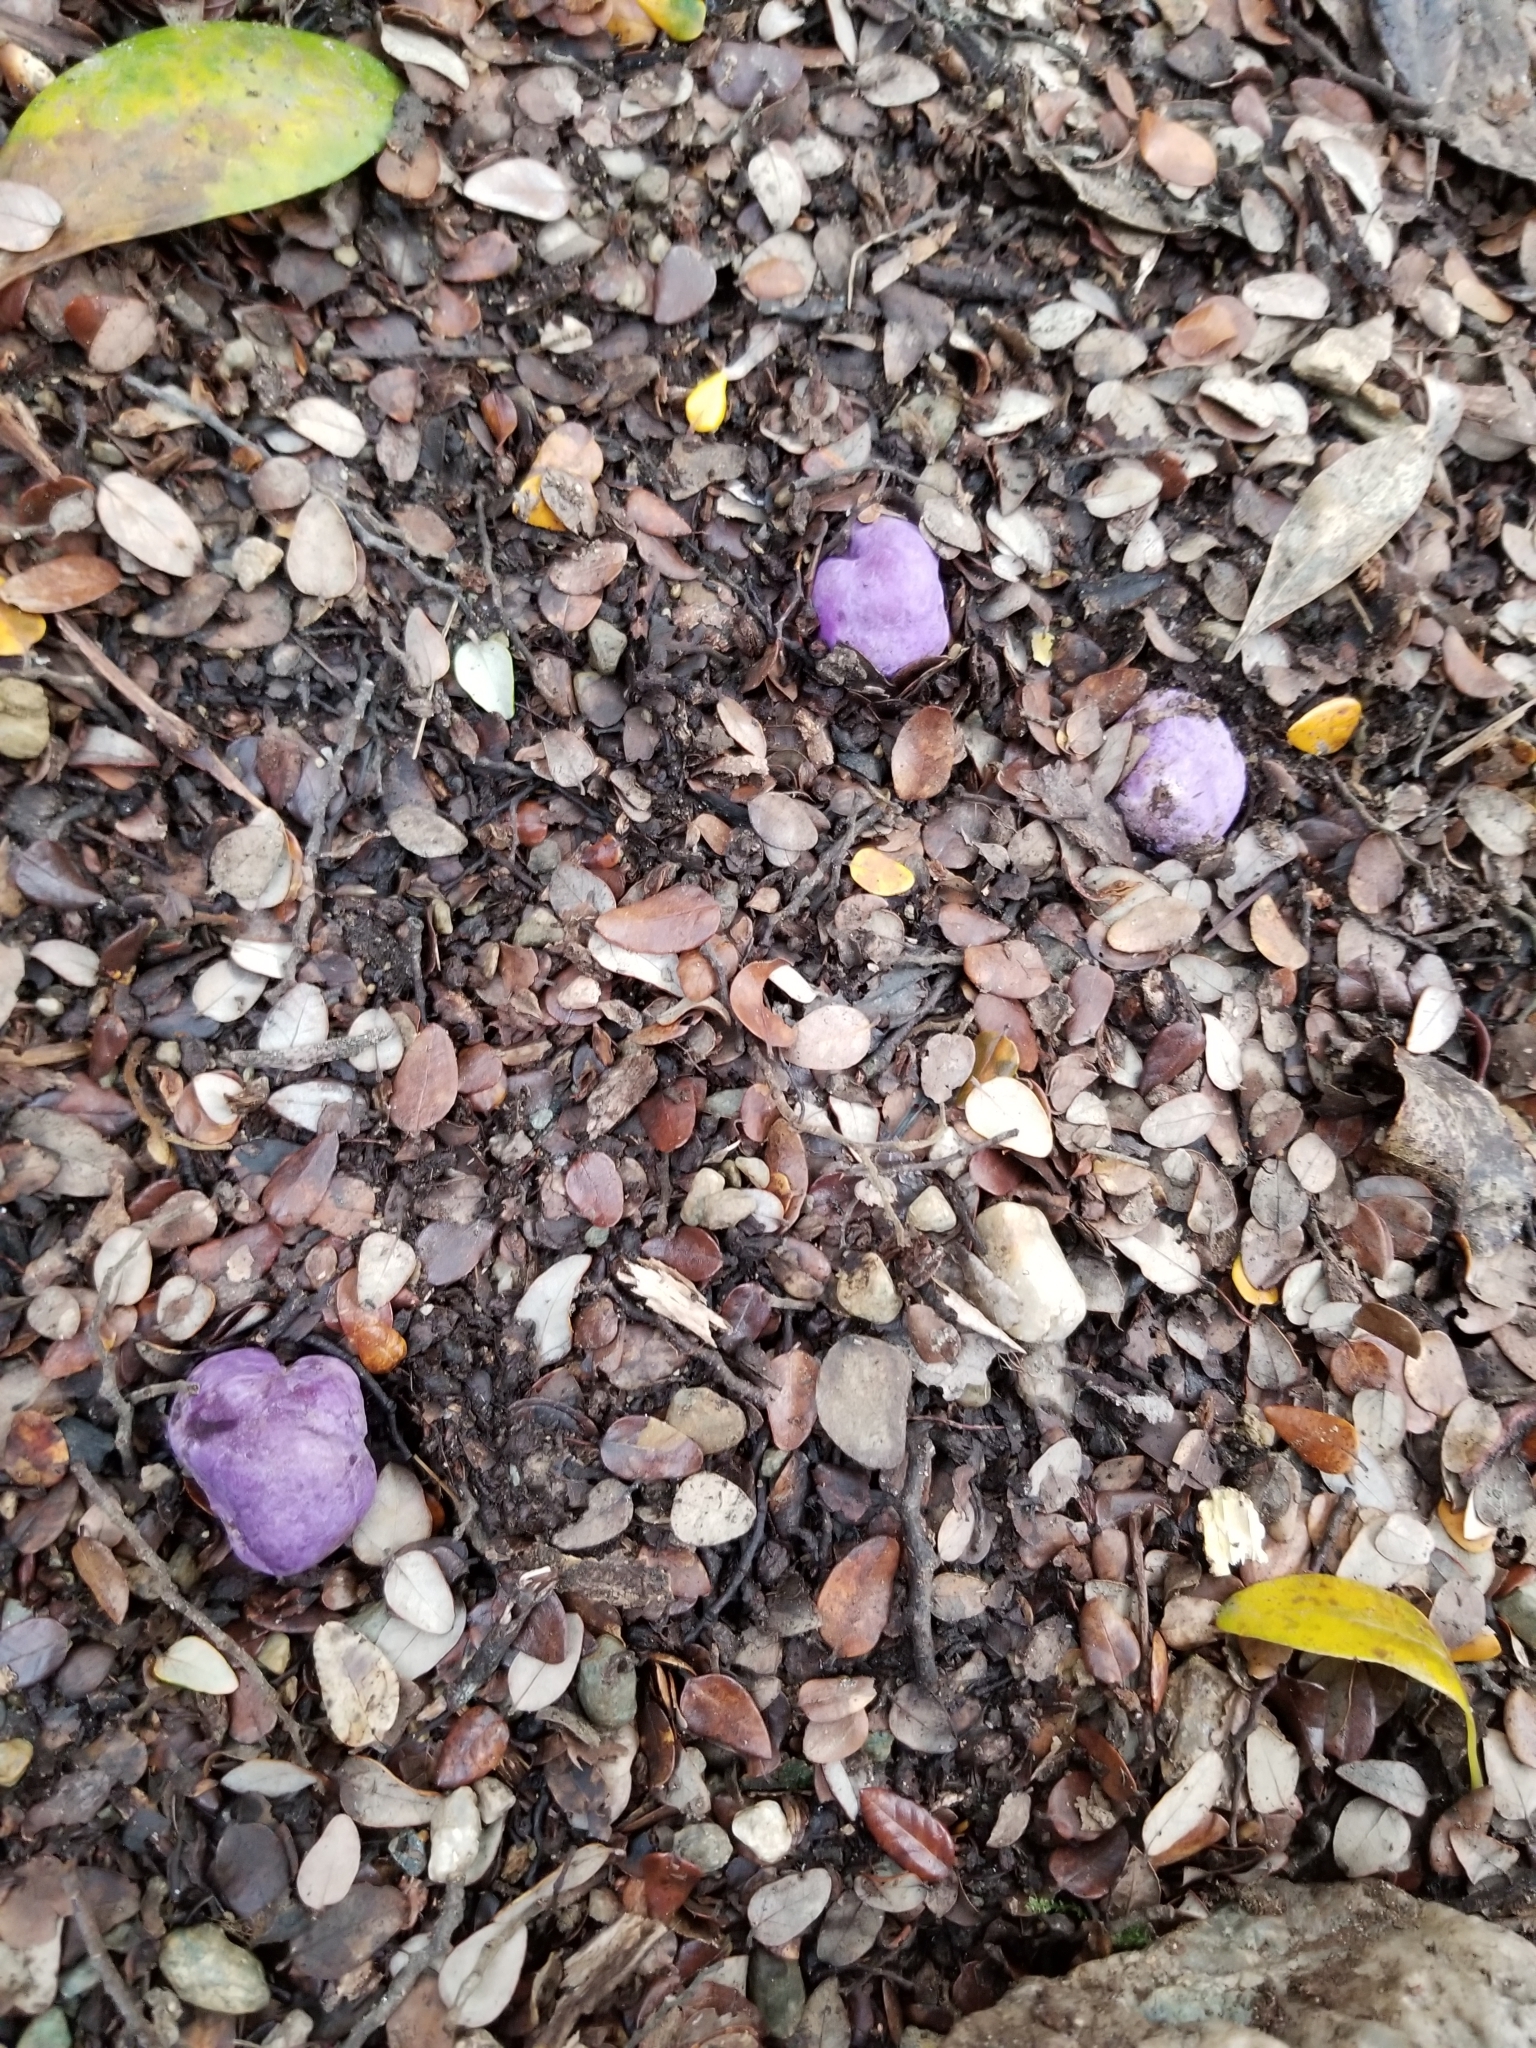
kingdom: Fungi
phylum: Basidiomycota
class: Agaricomycetes
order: Hysterangiales
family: Gallaceaceae
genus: Gallacea
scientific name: Gallacea scleroderma
